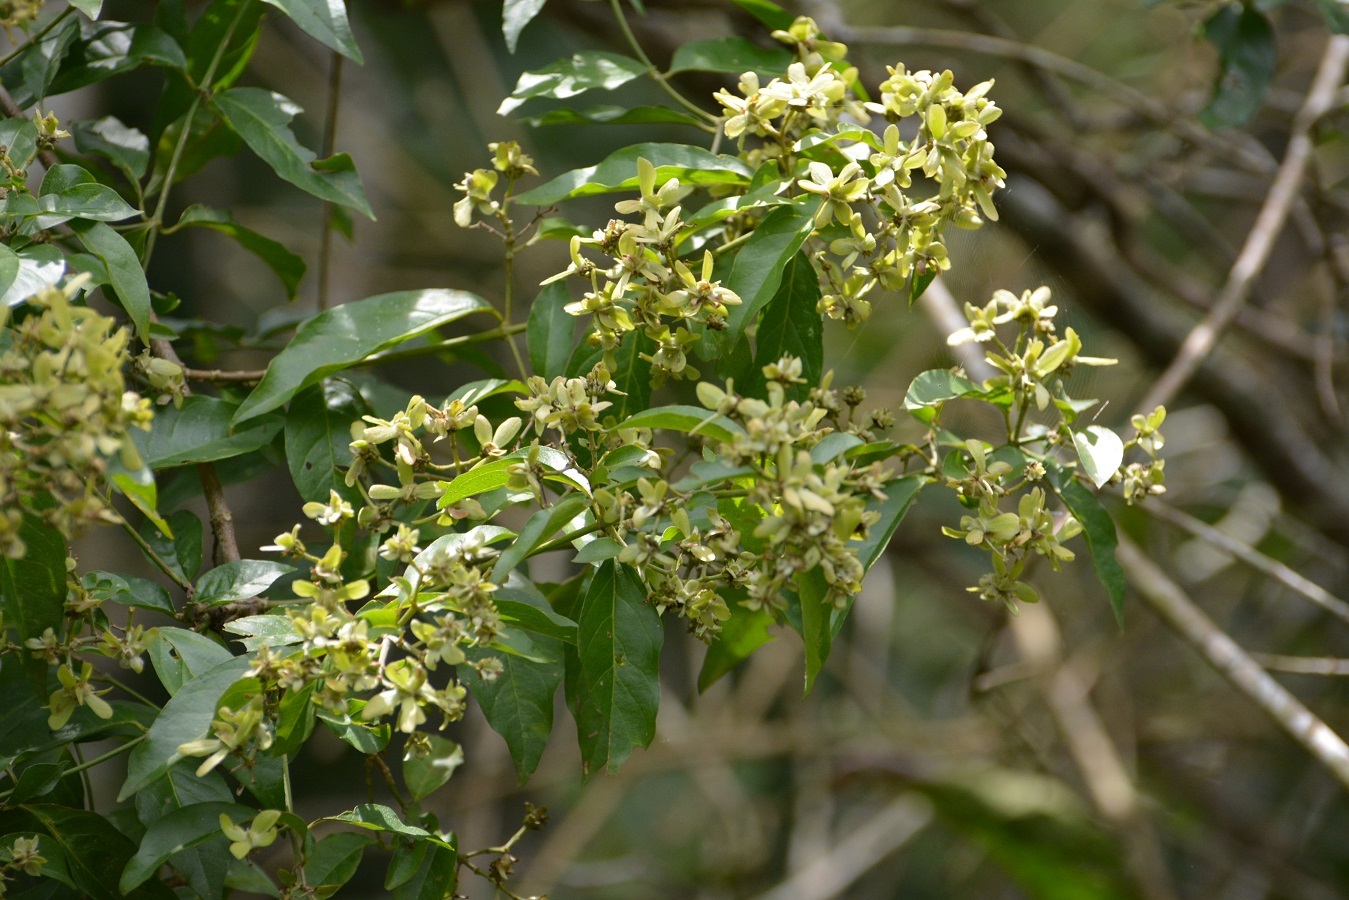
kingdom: Plantae
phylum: Tracheophyta
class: Magnoliopsida
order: Malpighiales
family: Malpighiaceae
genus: Tetrapterys
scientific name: Tetrapterys schiedeana
